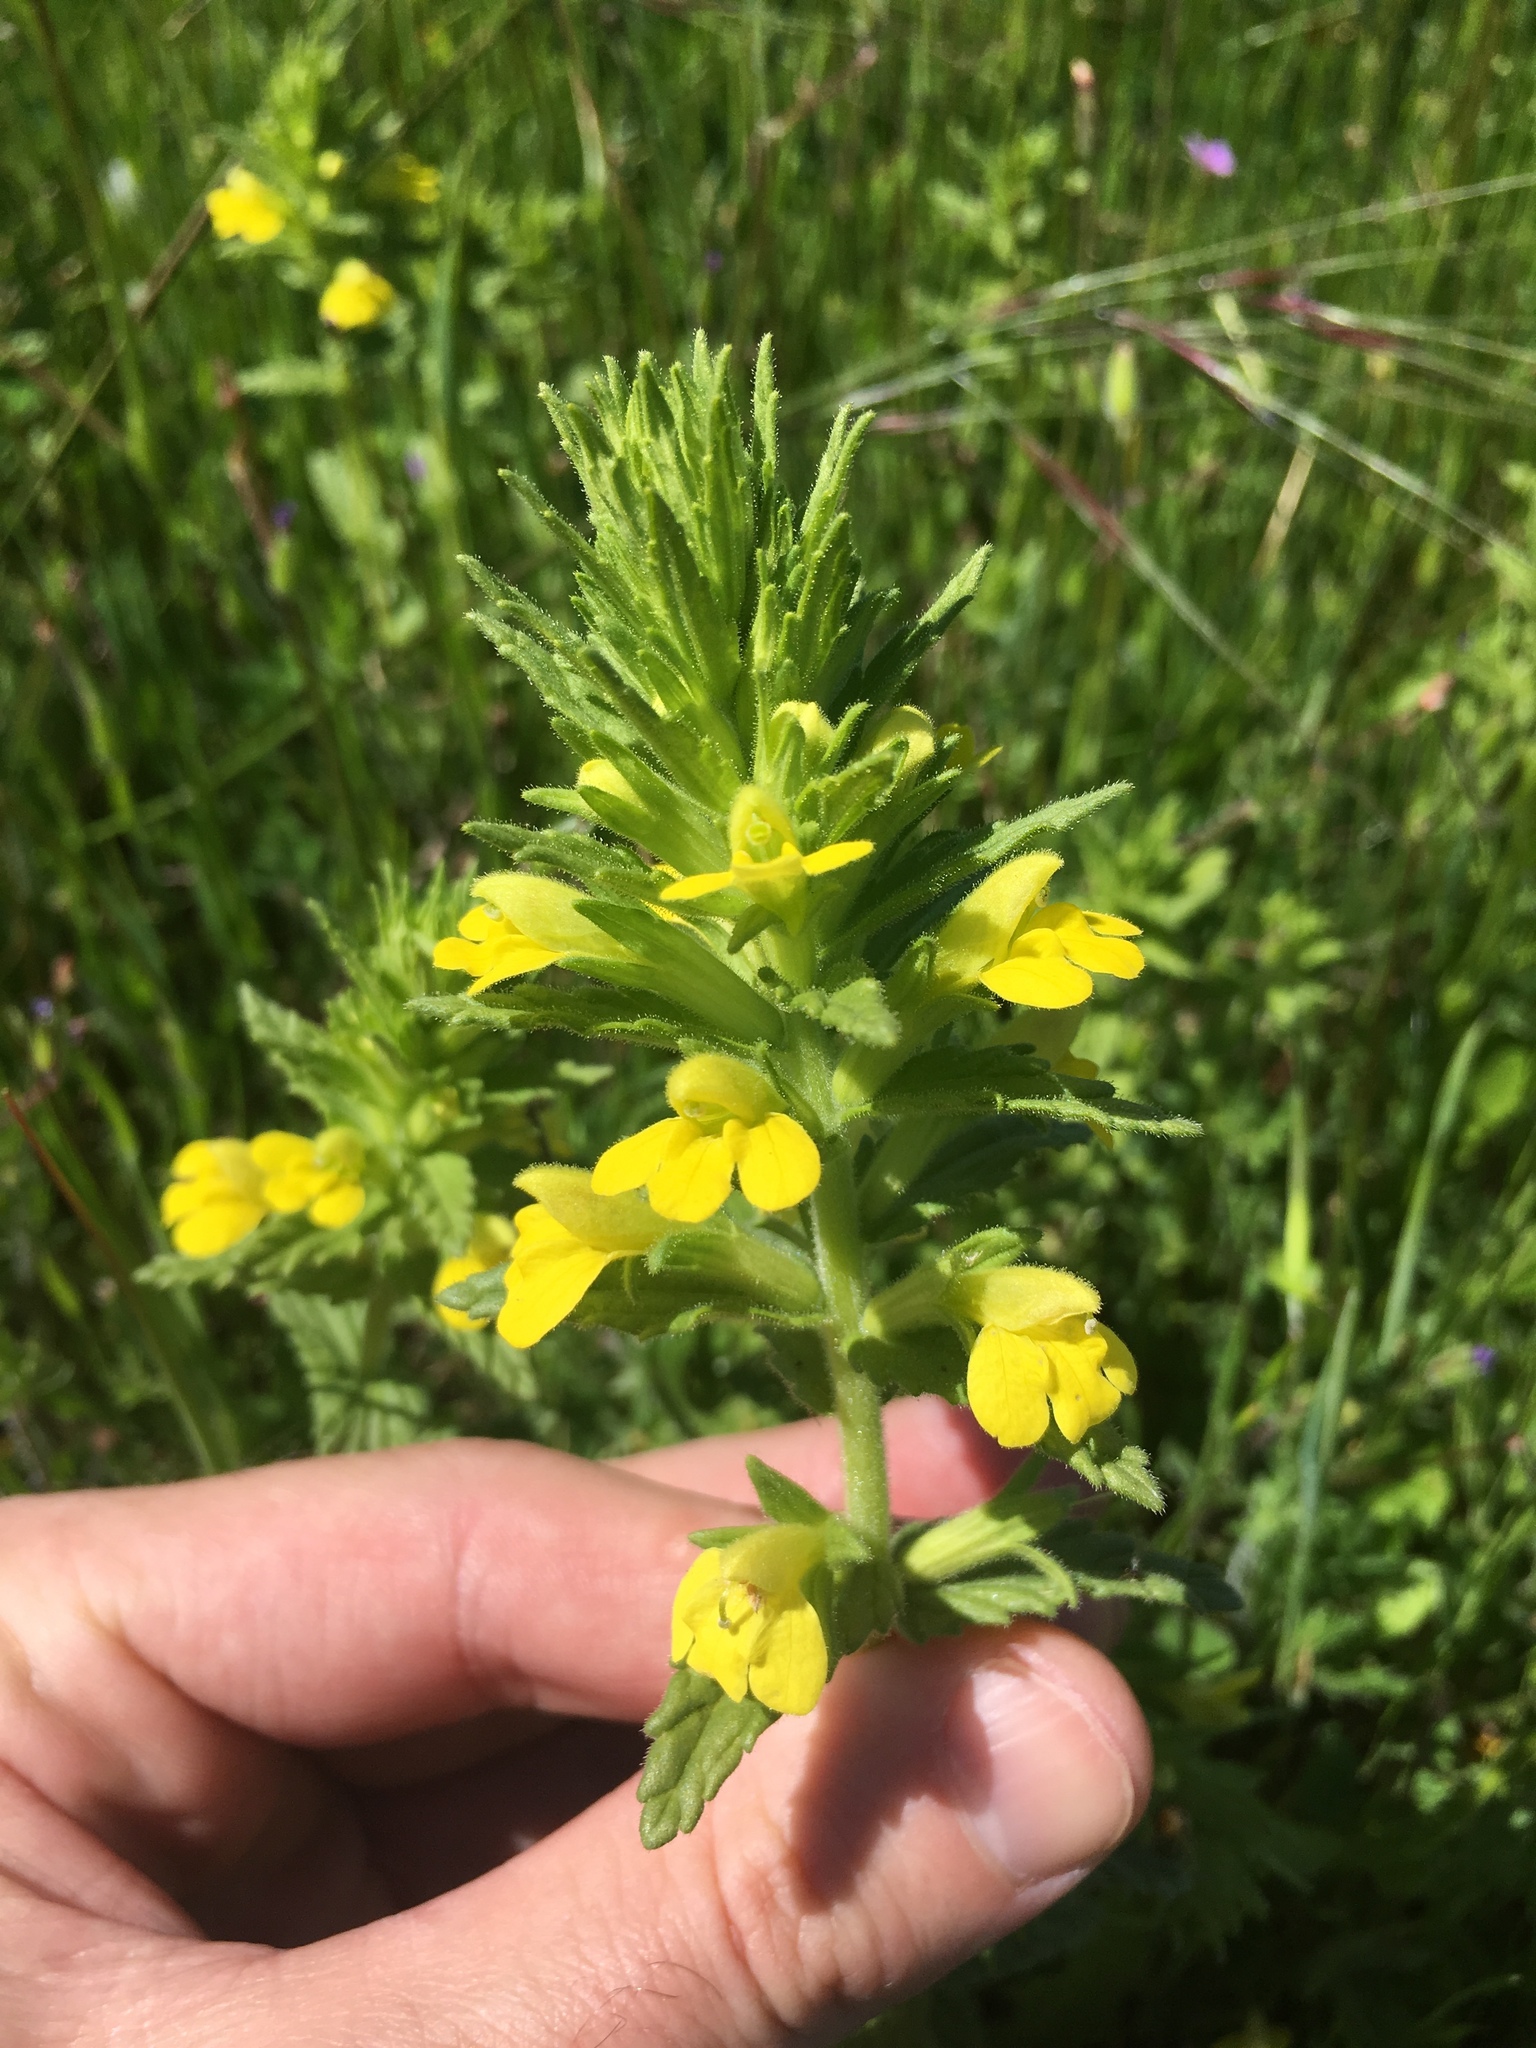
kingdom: Plantae
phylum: Tracheophyta
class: Magnoliopsida
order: Lamiales
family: Orobanchaceae
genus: Bellardia
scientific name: Bellardia viscosa
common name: Sticky parentucellia
